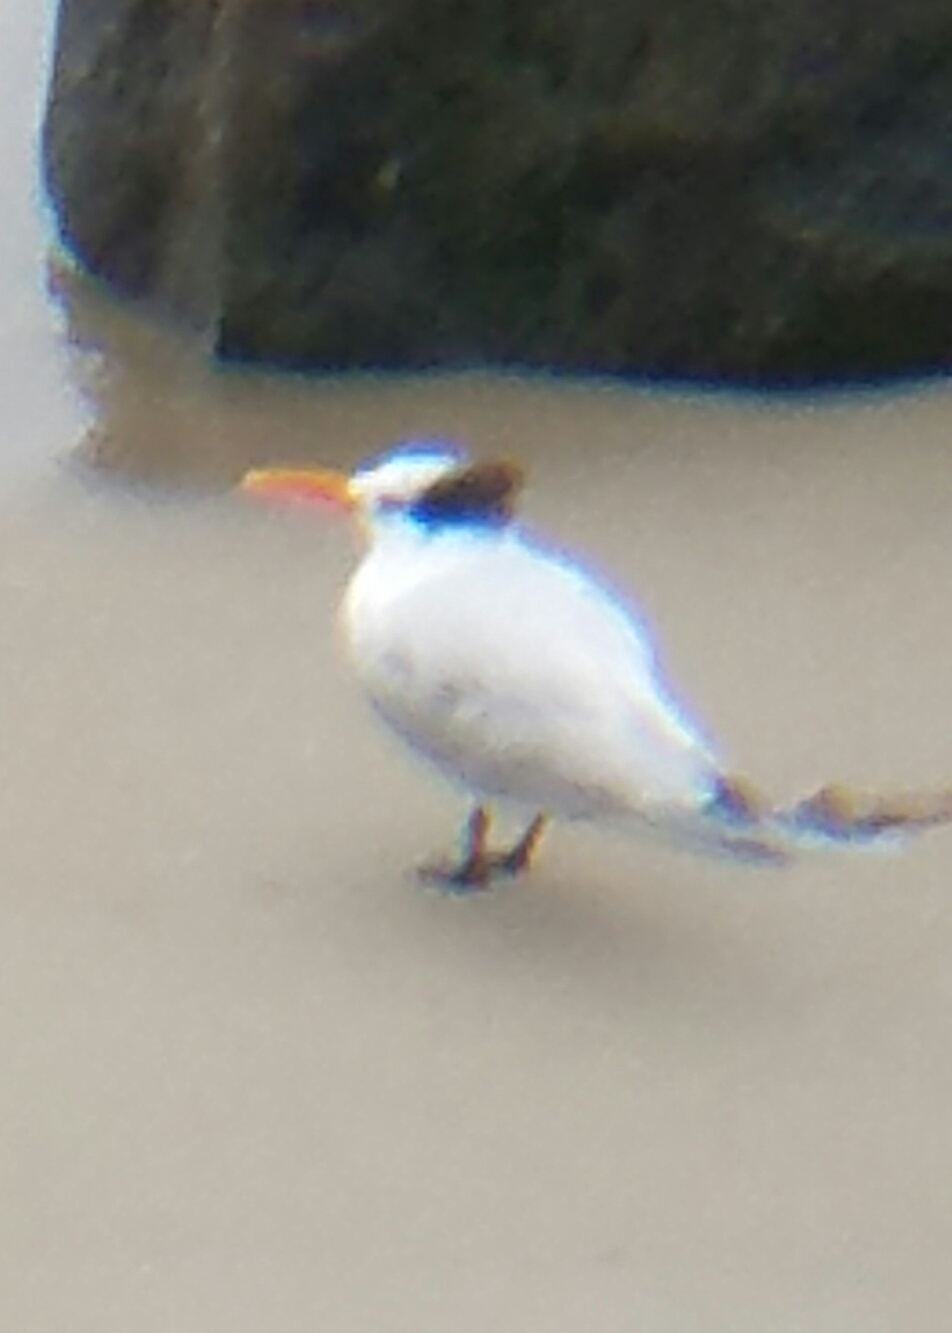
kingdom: Animalia
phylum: Chordata
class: Aves
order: Charadriiformes
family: Laridae
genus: Thalasseus
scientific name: Thalasseus maximus
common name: Royal tern
